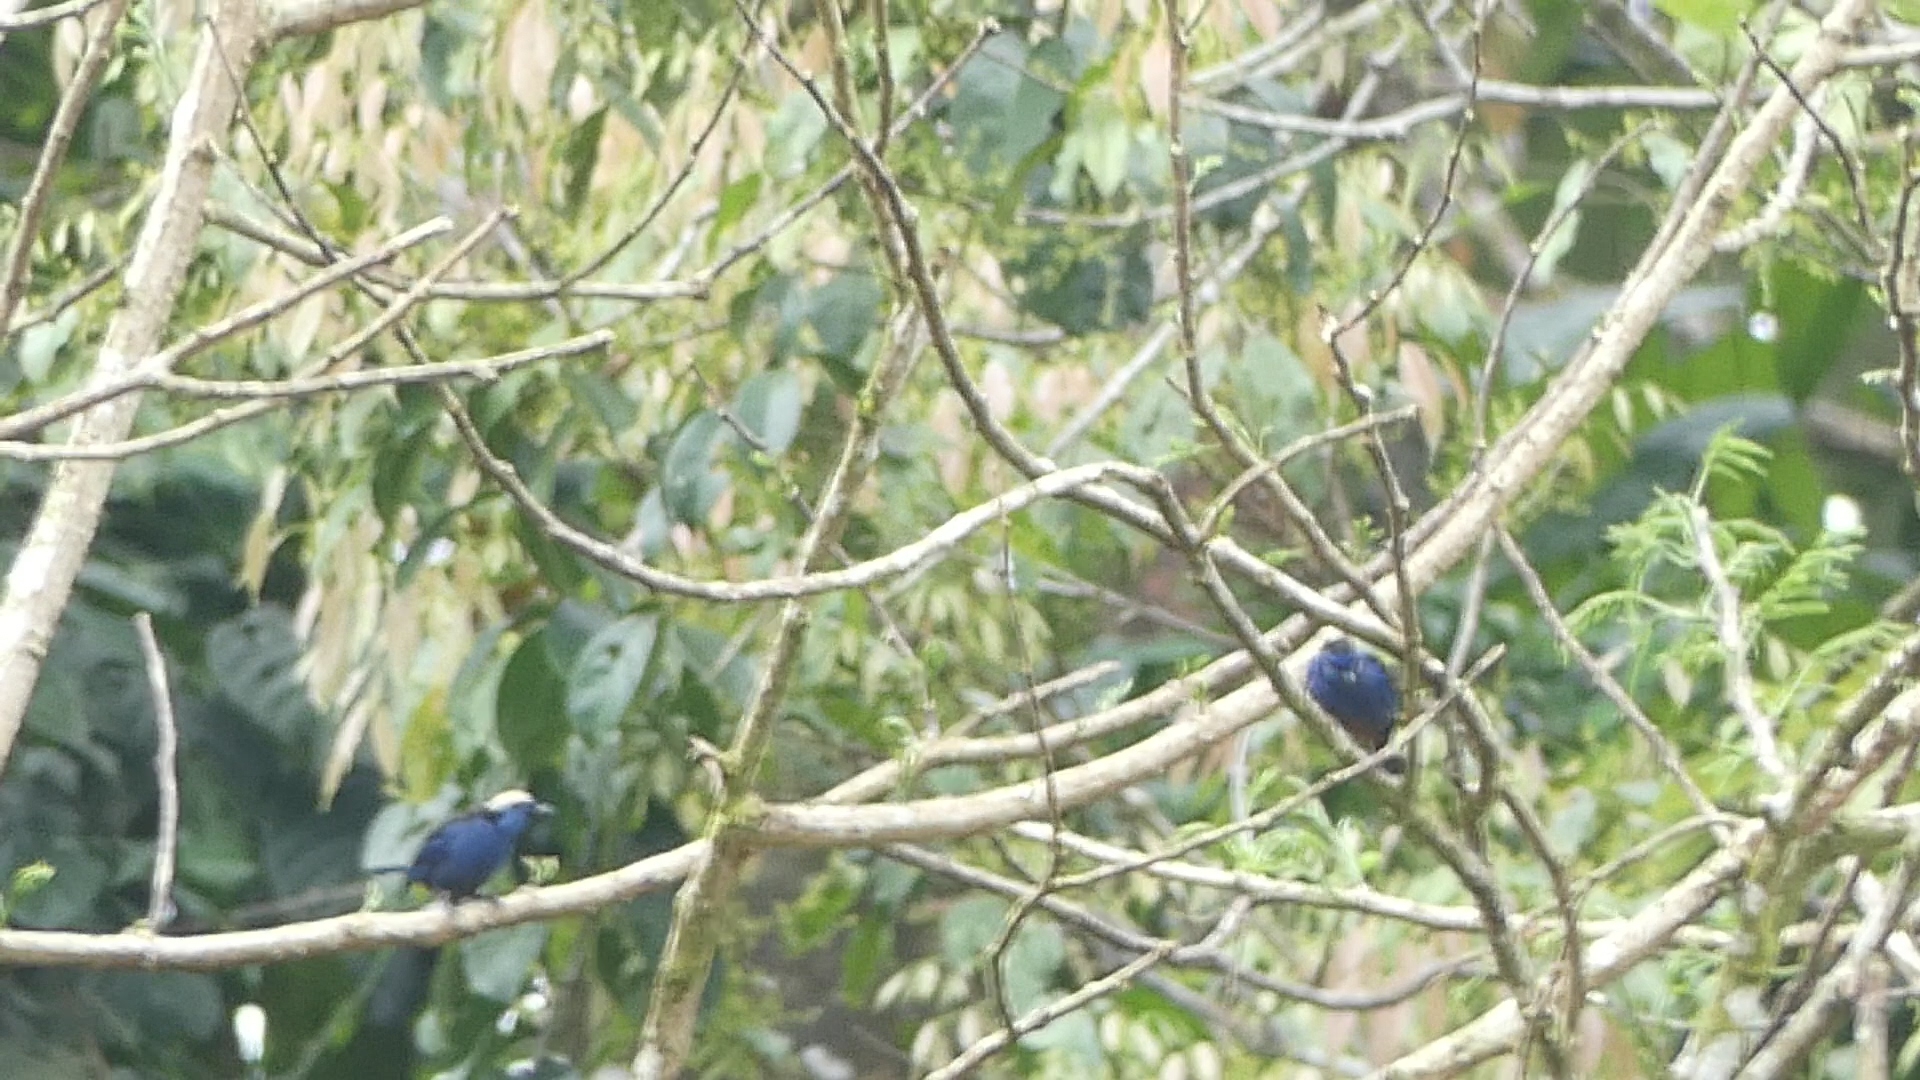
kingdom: Animalia
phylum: Chordata
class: Aves
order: Passeriformes
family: Thraupidae
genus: Tangara
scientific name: Tangara velia
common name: Opal-rumped tanager
